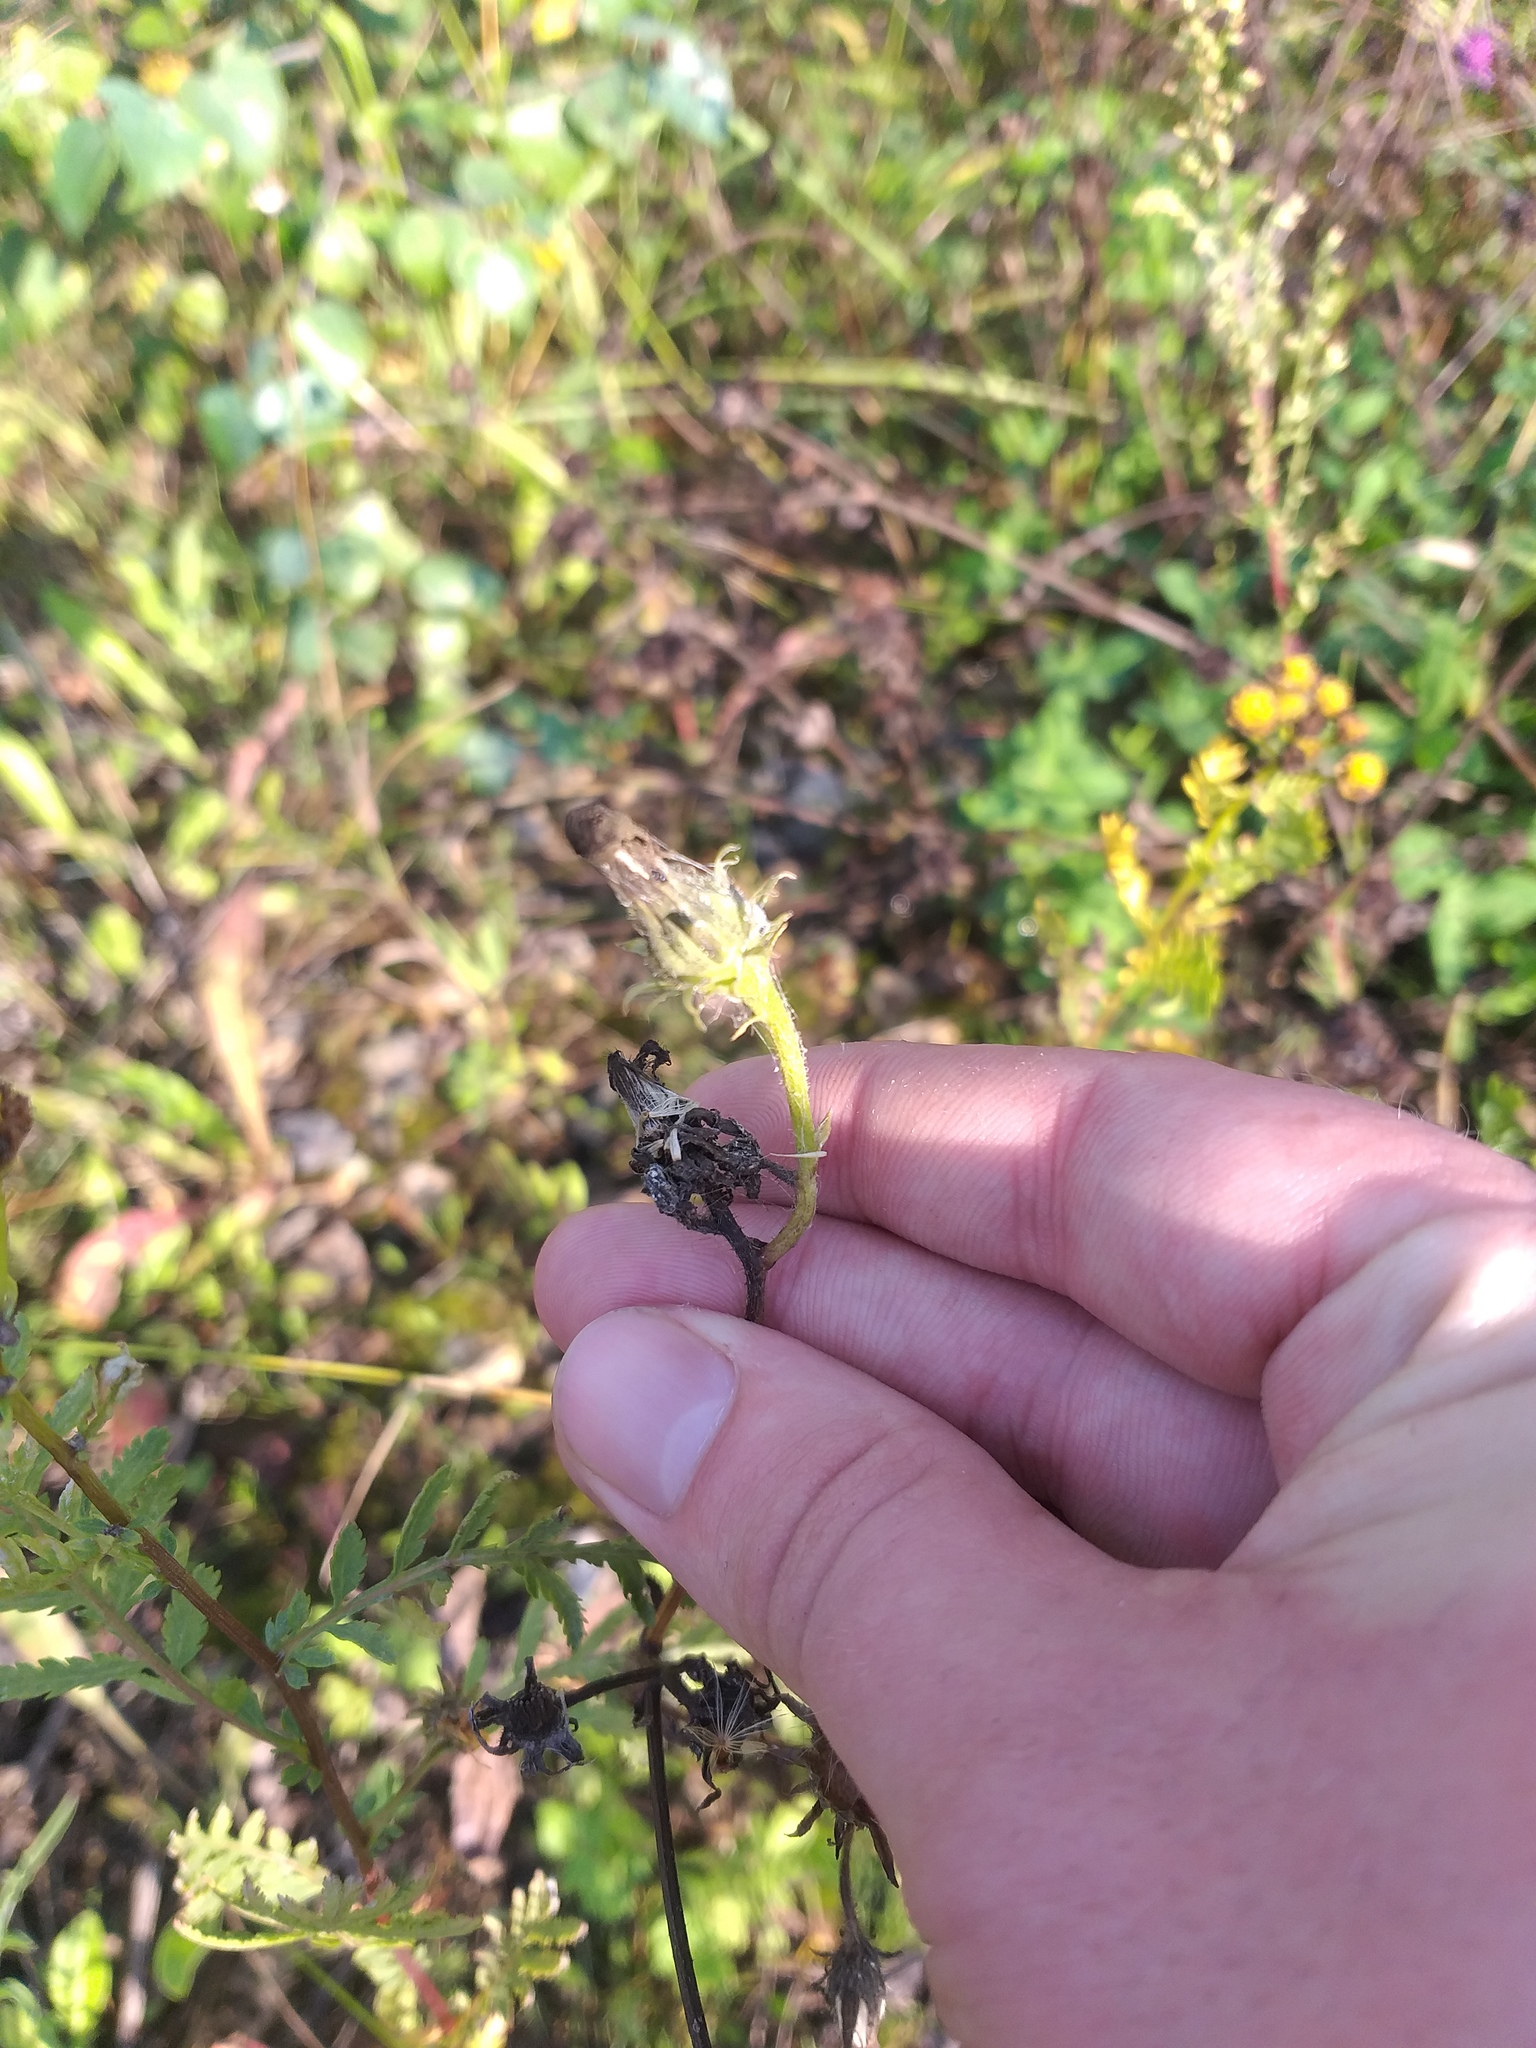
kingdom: Plantae
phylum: Tracheophyta
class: Magnoliopsida
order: Asterales
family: Asteraceae
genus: Picris
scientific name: Picris hieracioides
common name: Hawkweed oxtongue
